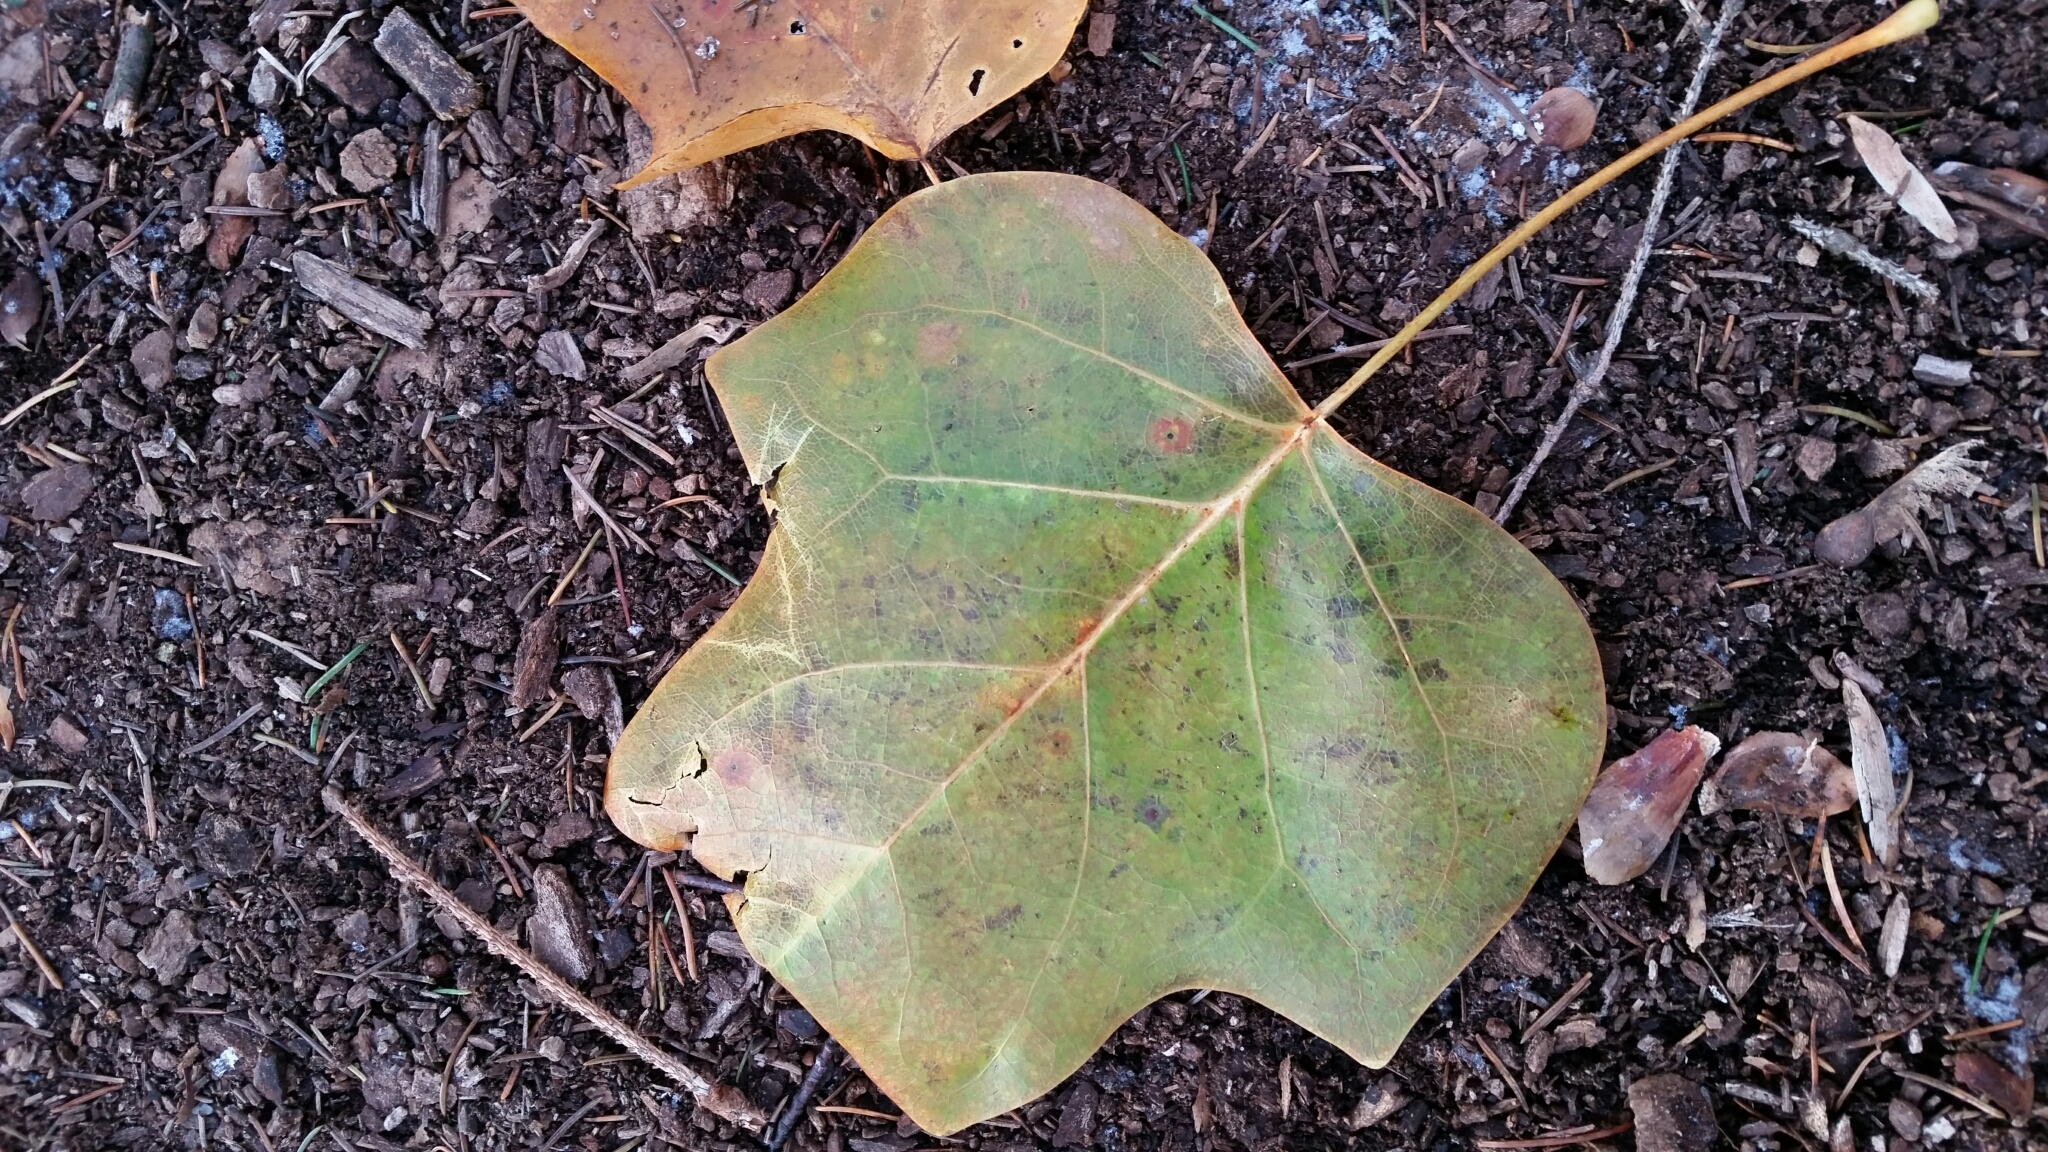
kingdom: Plantae
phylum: Tracheophyta
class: Magnoliopsida
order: Magnoliales
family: Magnoliaceae
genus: Liriodendron
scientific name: Liriodendron tulipifera
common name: Tulip tree
